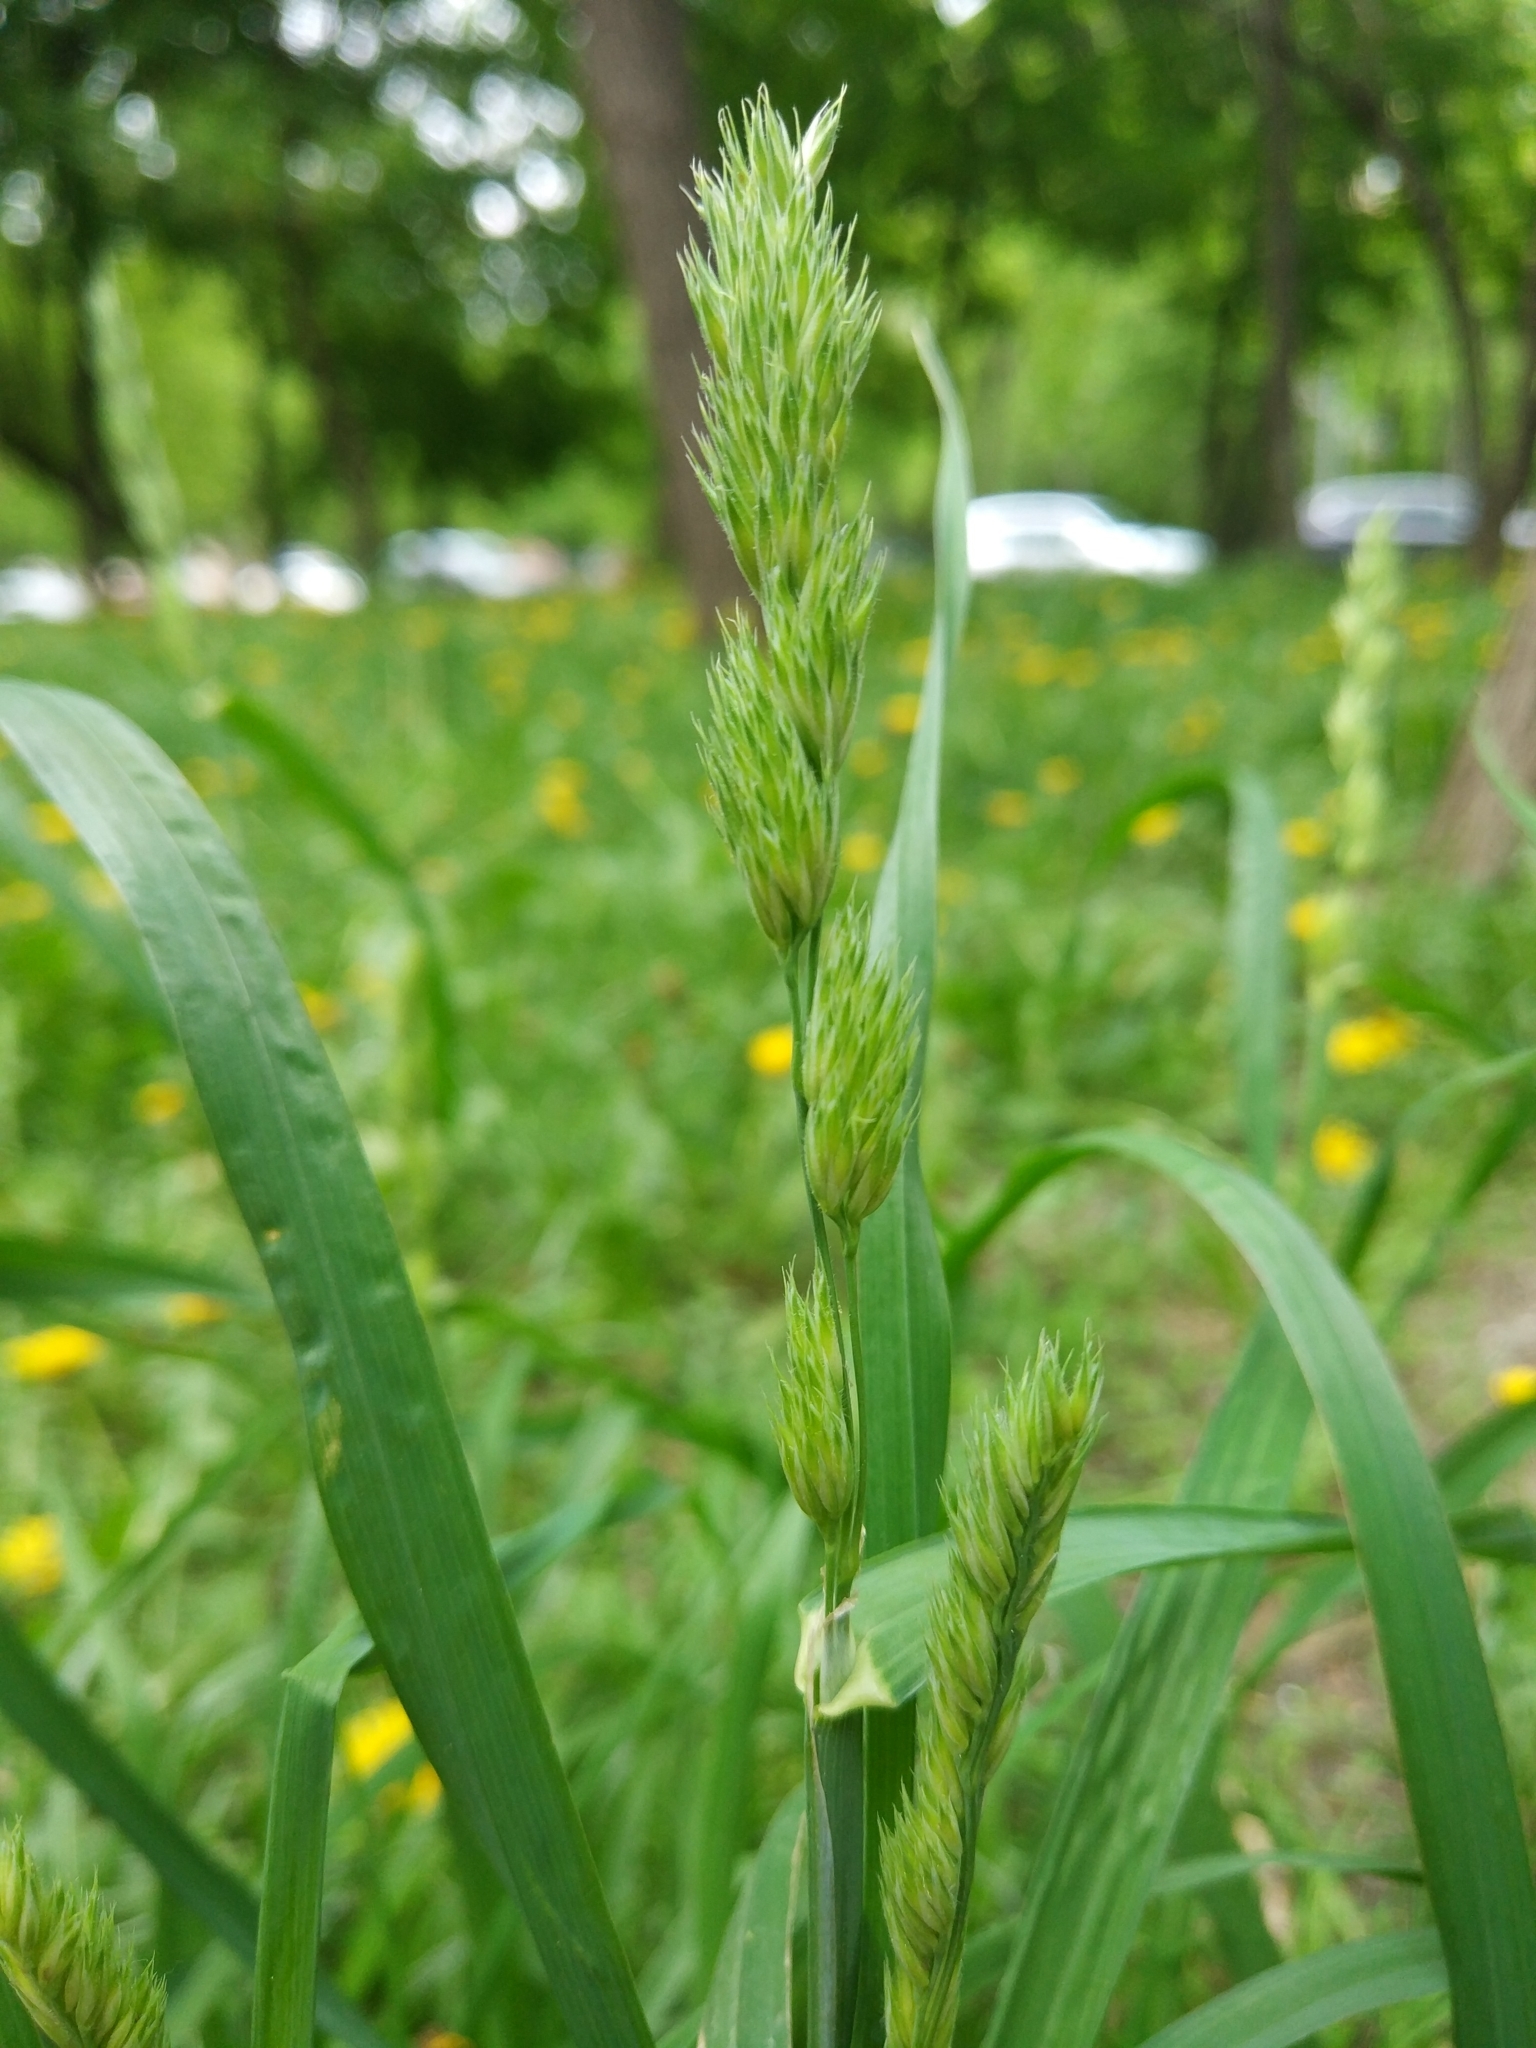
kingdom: Plantae
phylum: Tracheophyta
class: Liliopsida
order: Poales
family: Poaceae
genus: Dactylis
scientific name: Dactylis glomerata
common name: Orchardgrass
